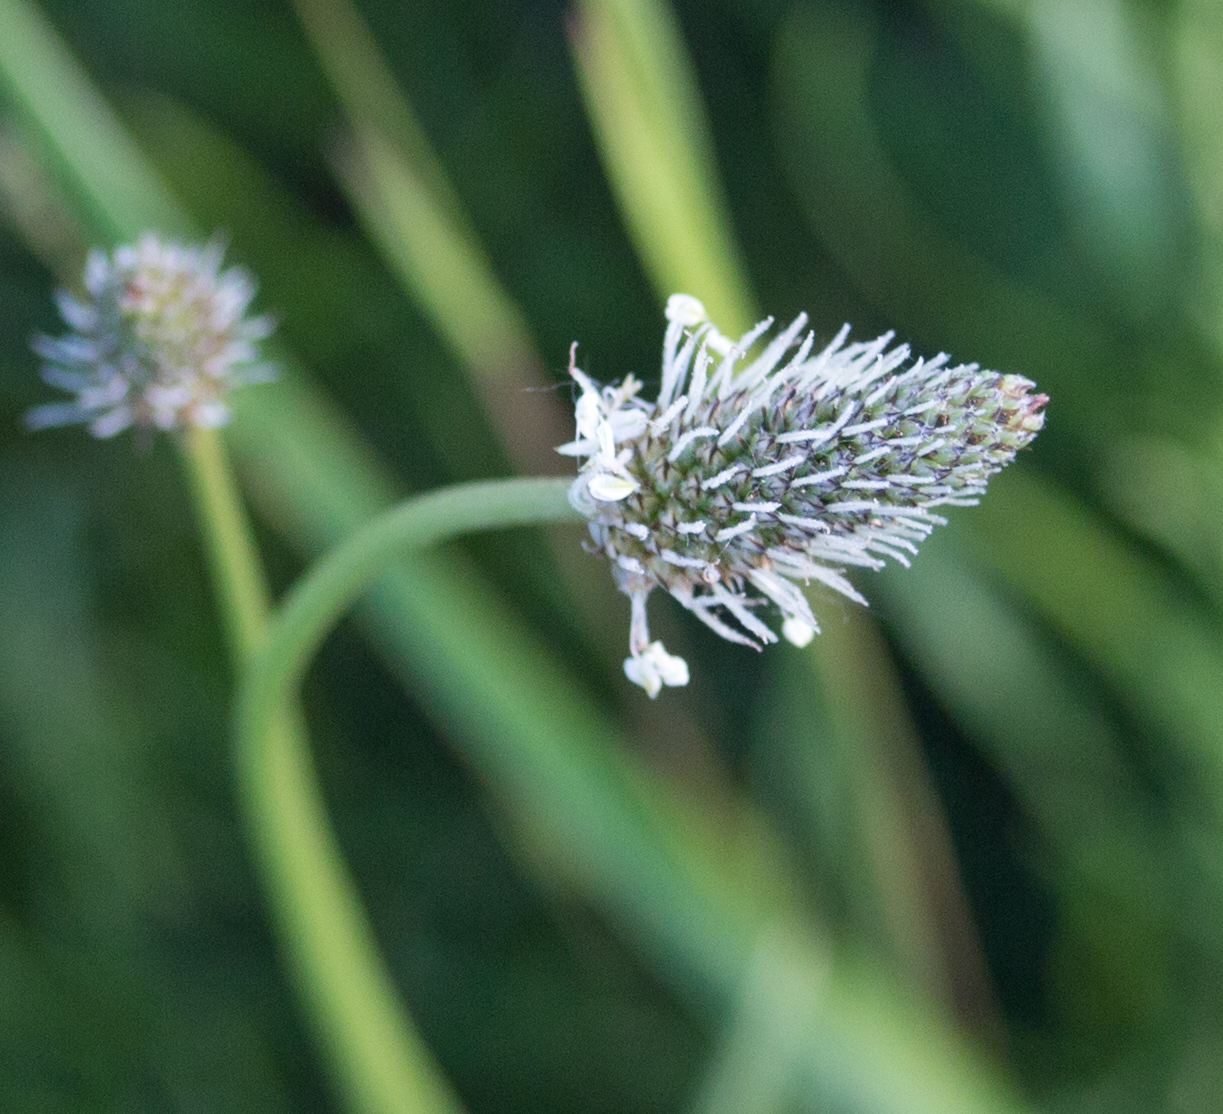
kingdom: Plantae
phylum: Tracheophyta
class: Magnoliopsida
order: Lamiales
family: Plantaginaceae
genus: Plantago
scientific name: Plantago lanceolata
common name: Ribwort plantain
